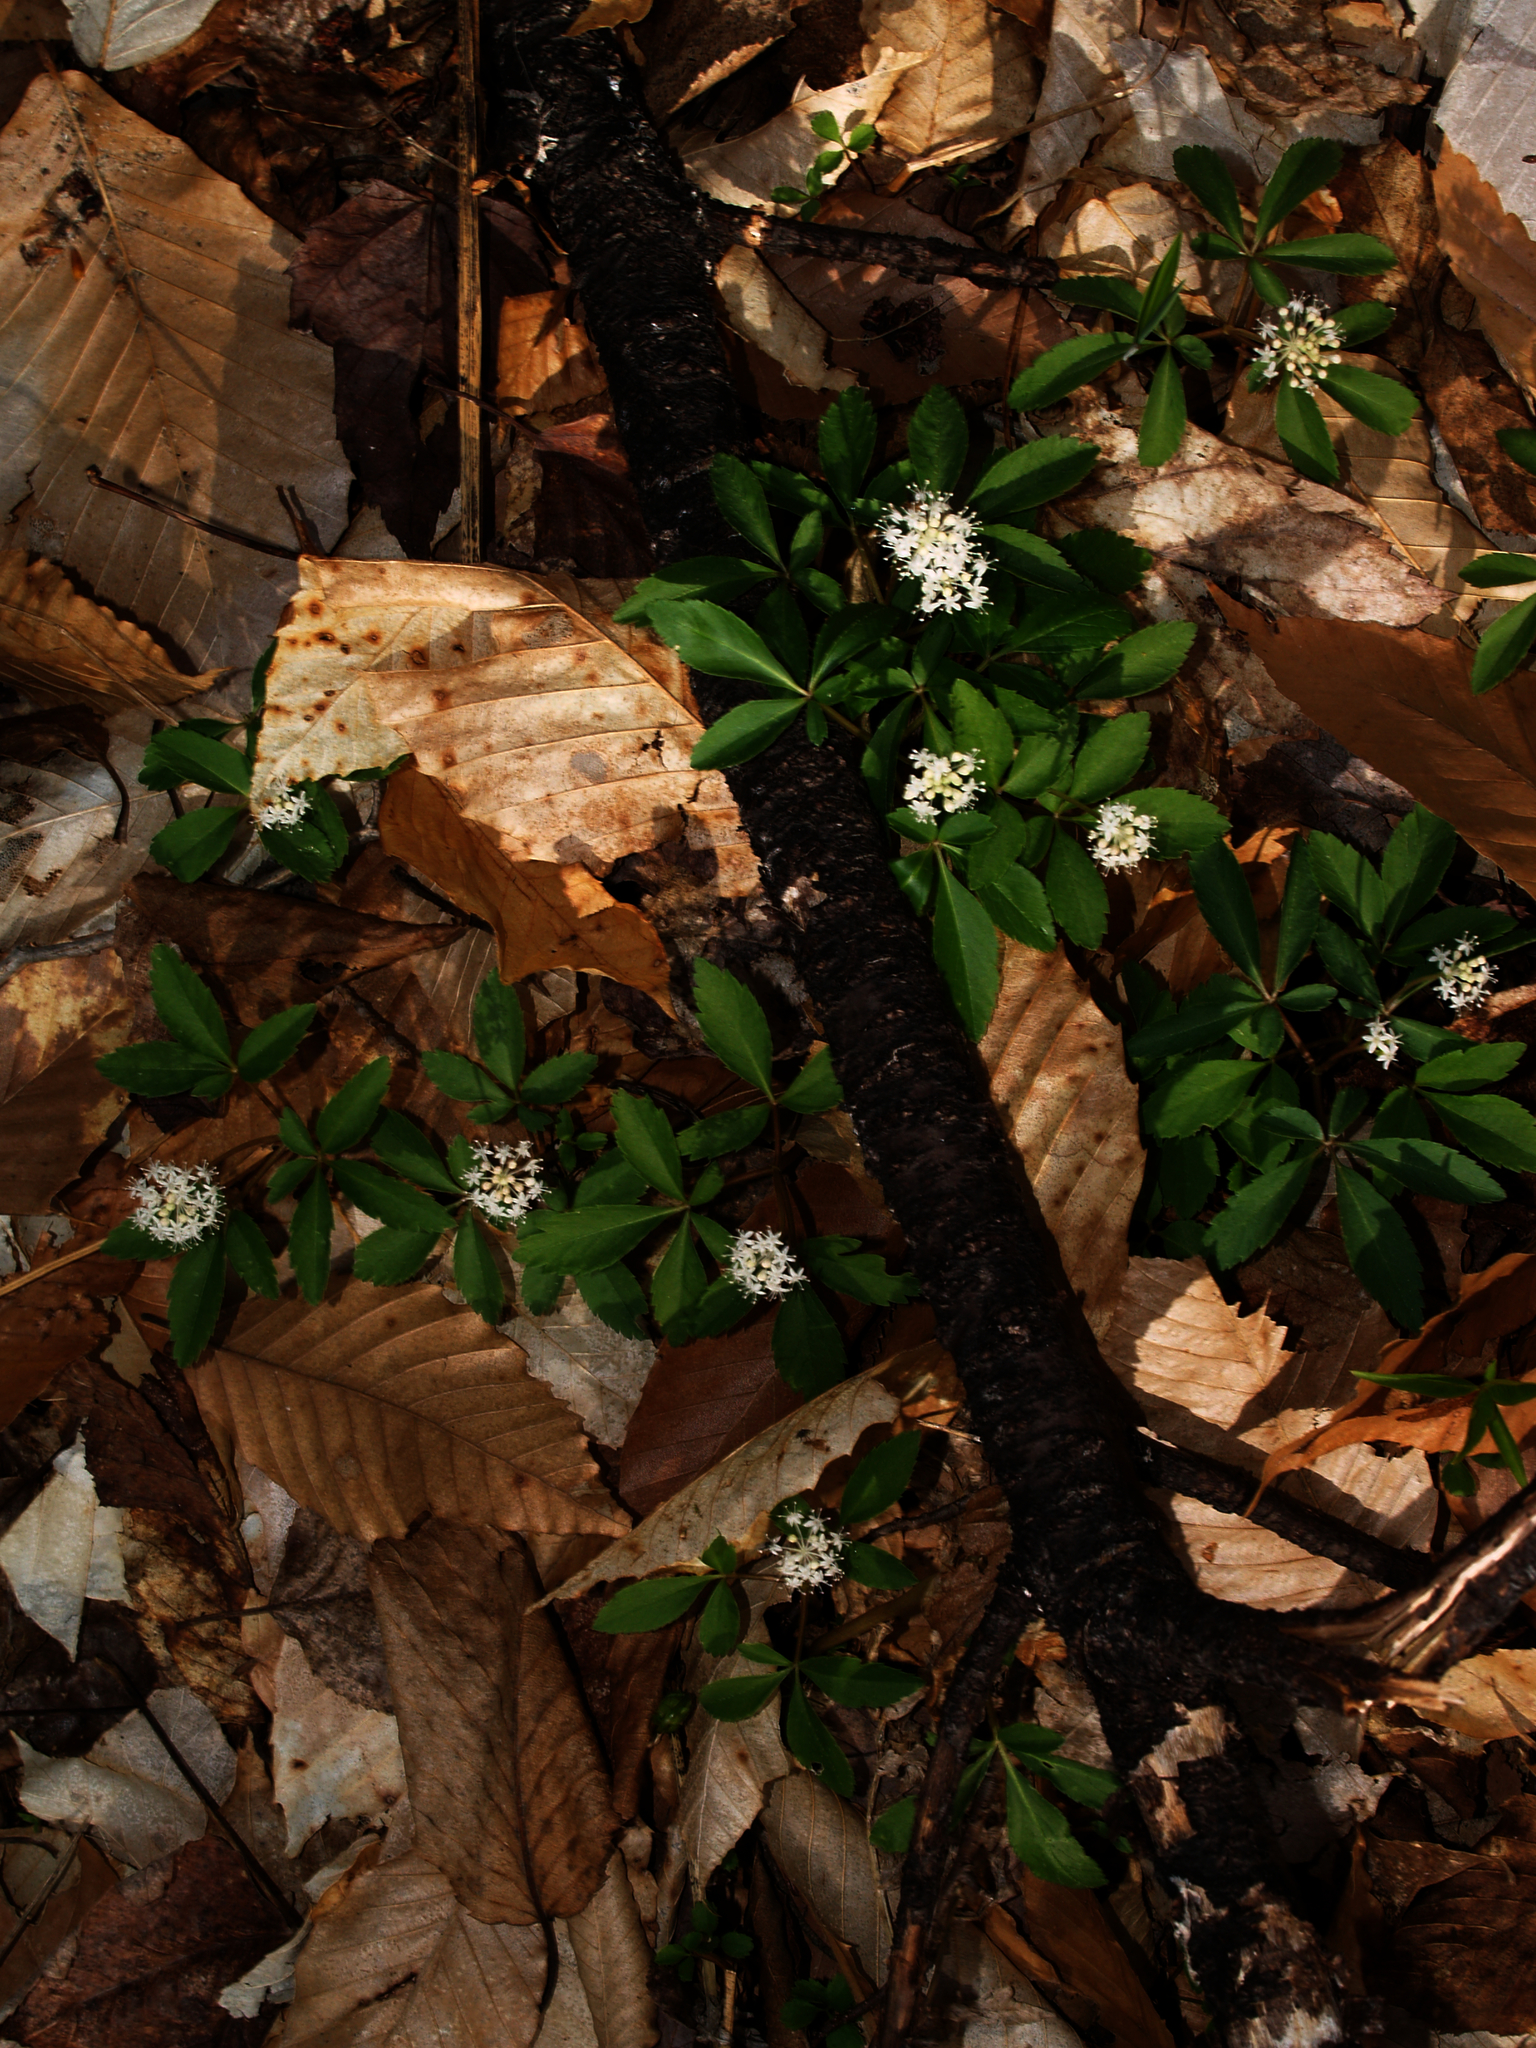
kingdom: Plantae
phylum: Tracheophyta
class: Magnoliopsida
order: Apiales
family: Araliaceae
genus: Panax
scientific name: Panax trifolius
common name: Dwarf ginseng
